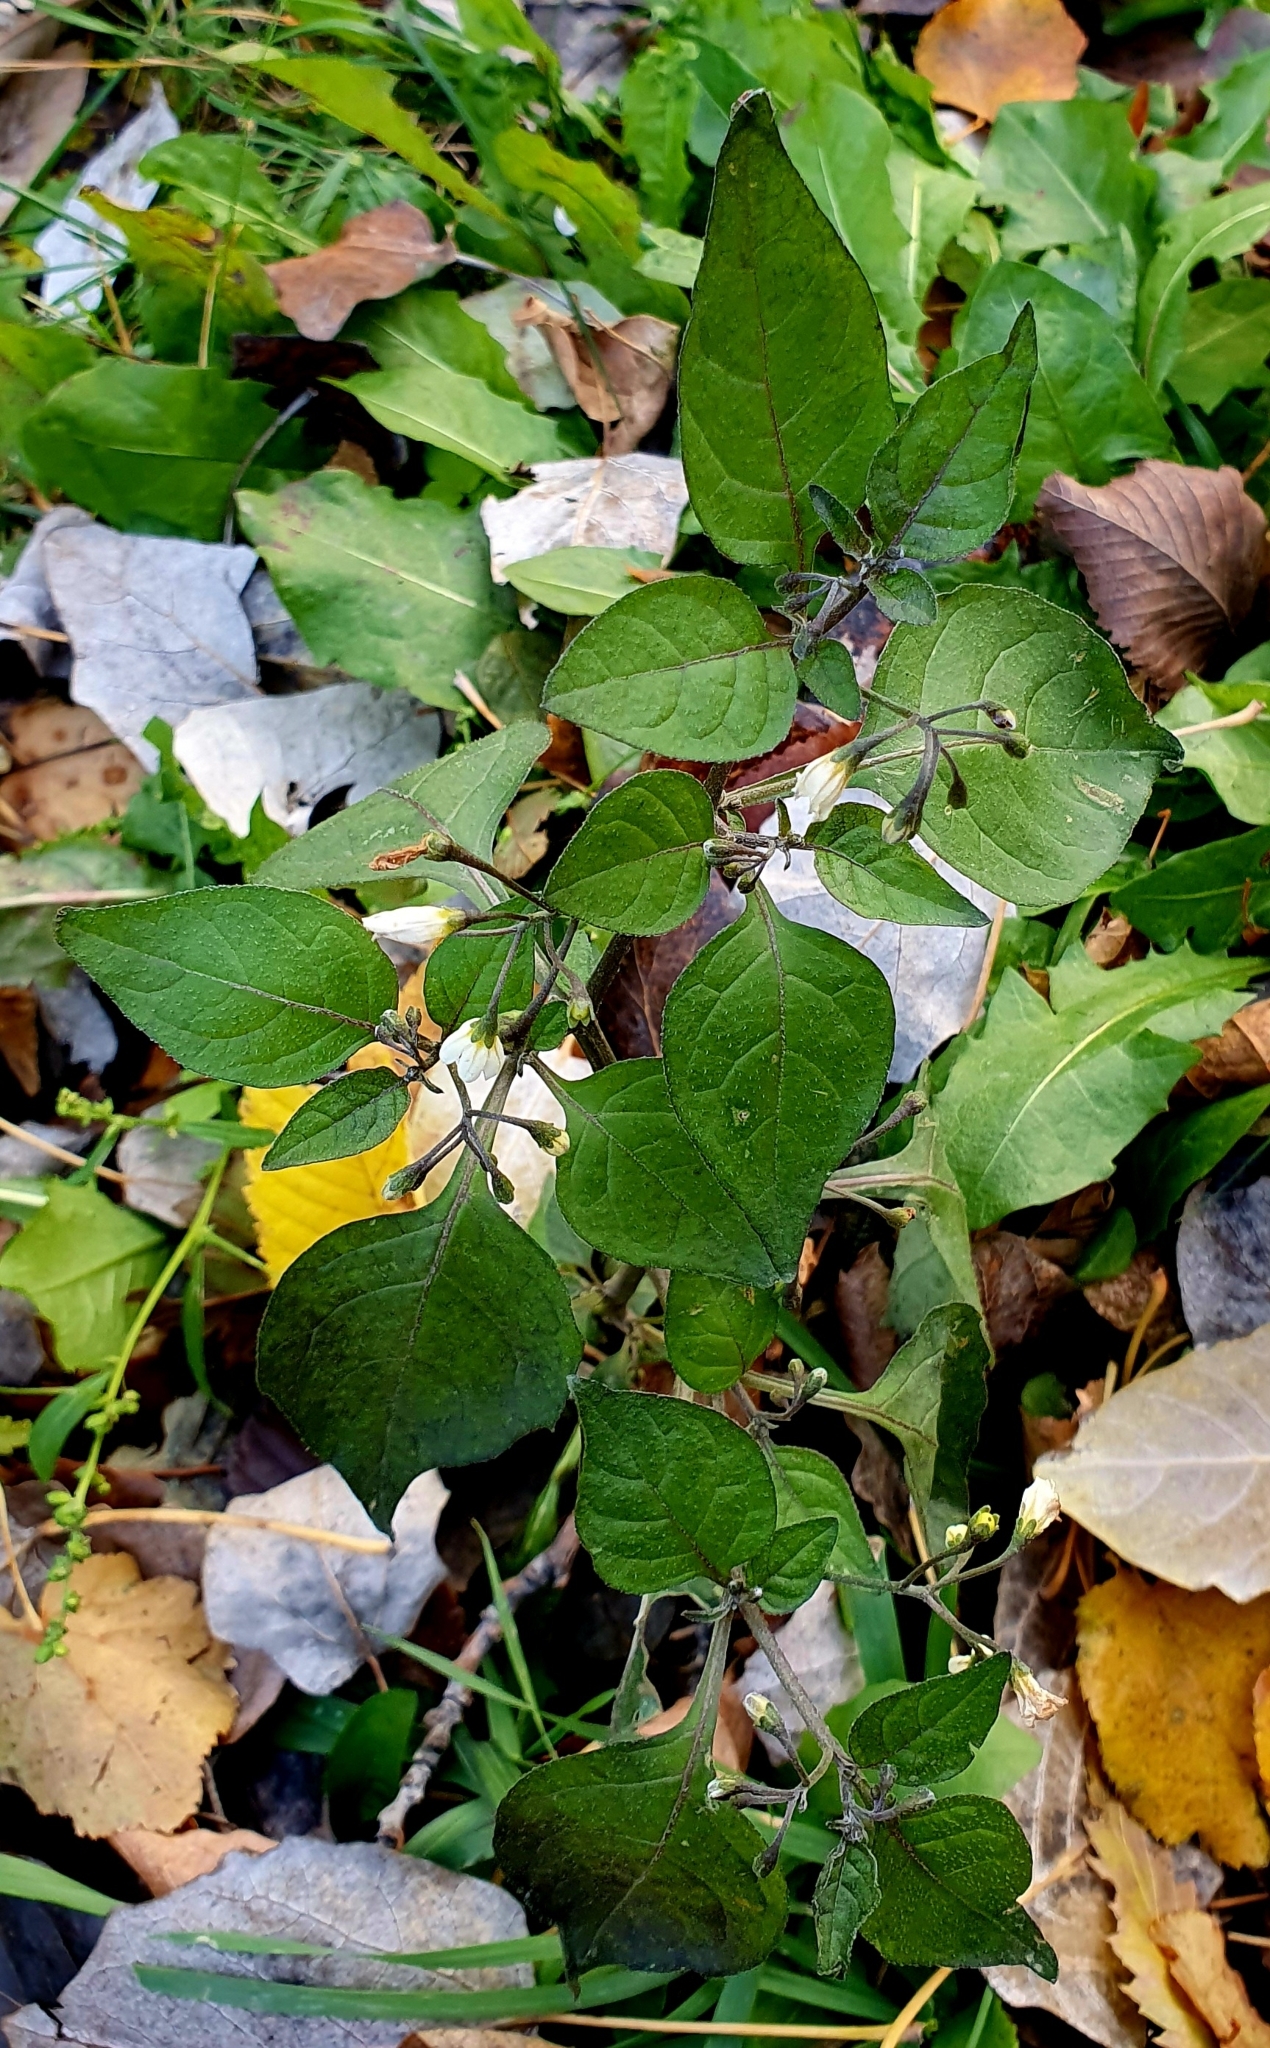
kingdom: Plantae
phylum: Tracheophyta
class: Magnoliopsida
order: Solanales
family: Solanaceae
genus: Solanum
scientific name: Solanum nigrum
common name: Black nightshade
